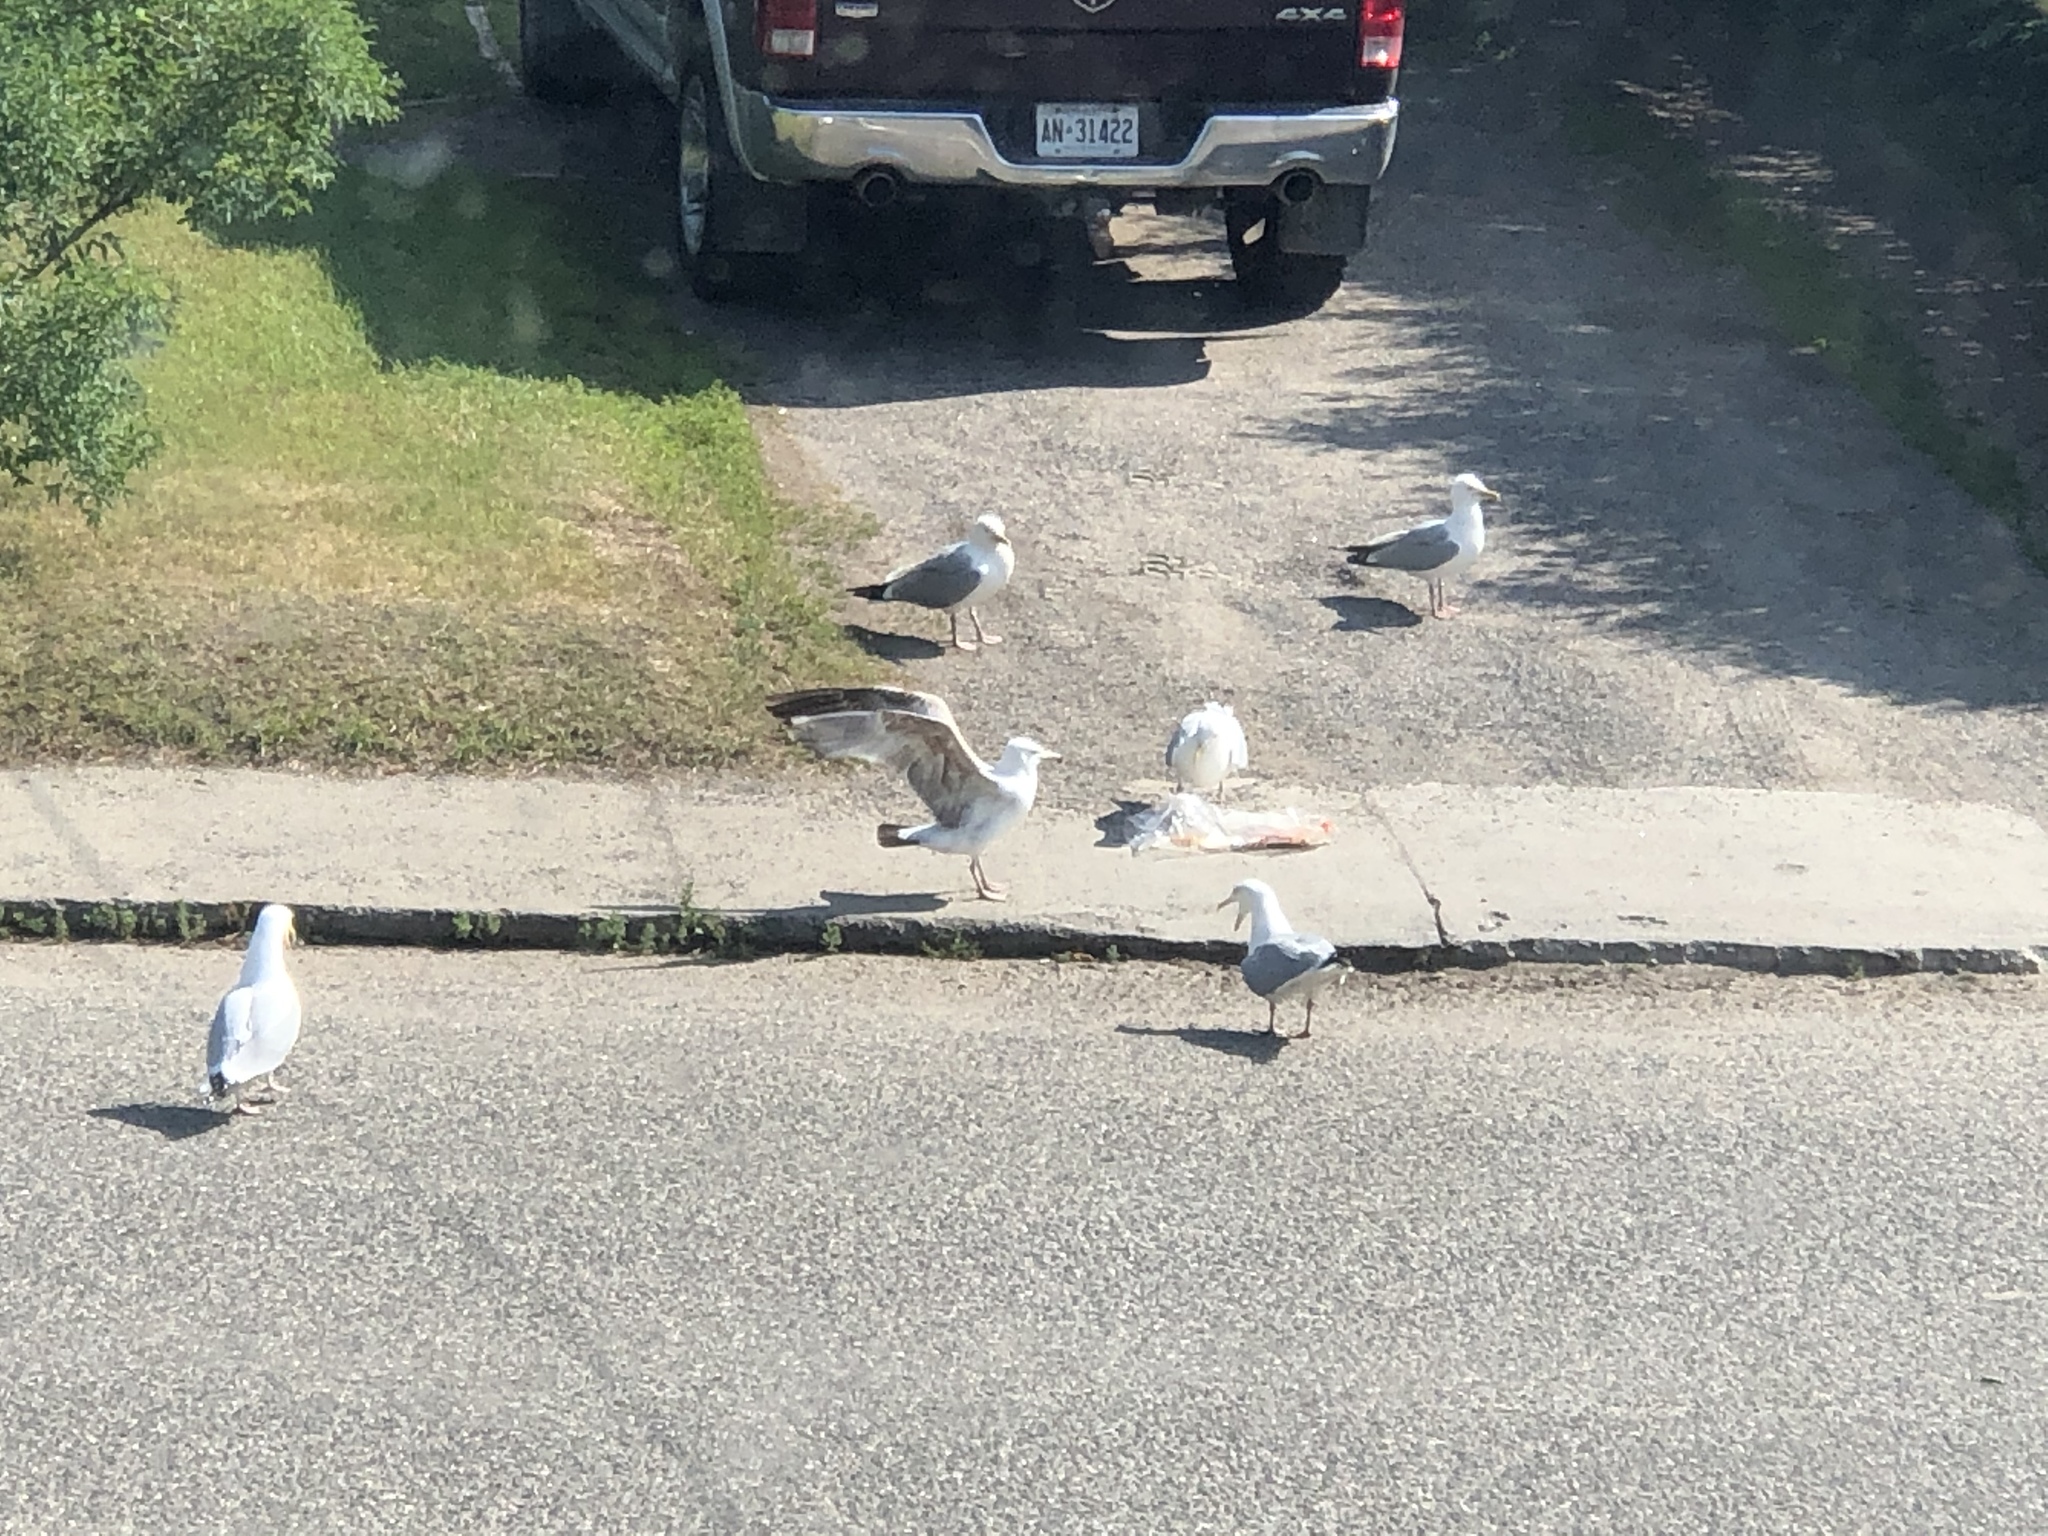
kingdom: Animalia
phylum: Chordata
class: Aves
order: Charadriiformes
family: Laridae
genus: Larus
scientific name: Larus argentatus
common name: Herring gull
